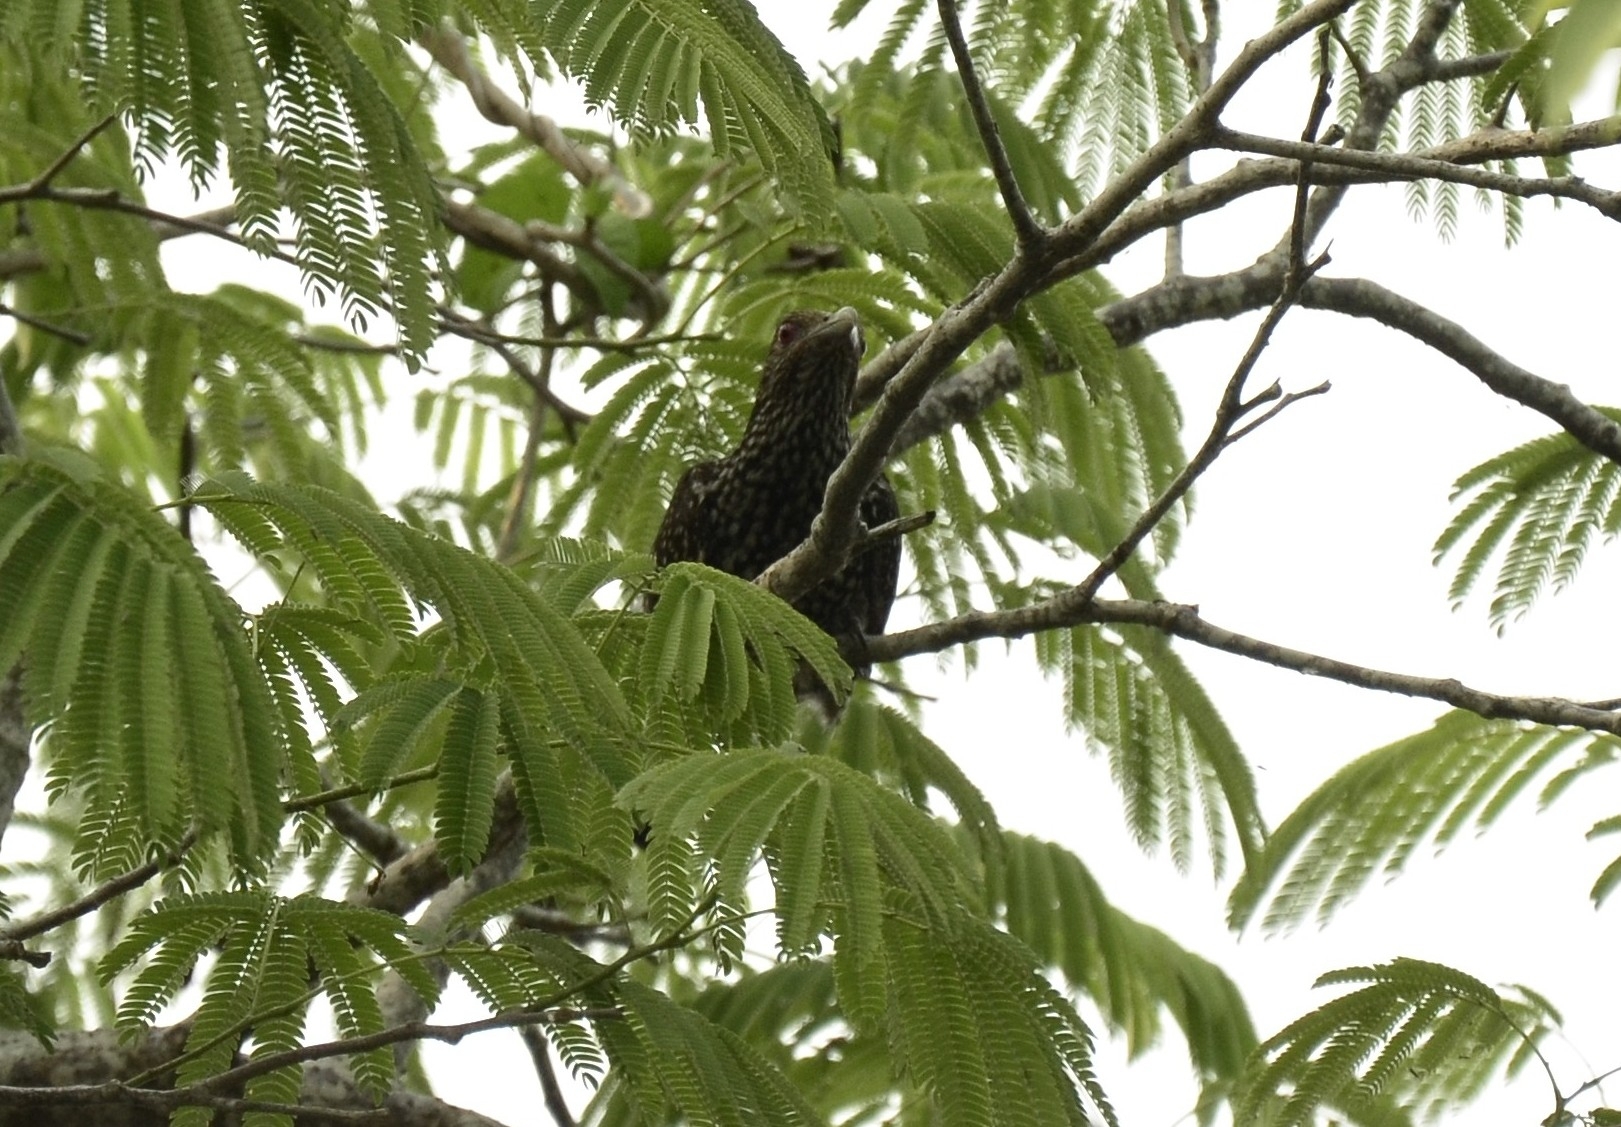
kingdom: Animalia
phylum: Chordata
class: Aves
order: Cuculiformes
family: Cuculidae
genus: Eudynamys
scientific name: Eudynamys scolopaceus
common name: Asian koel
